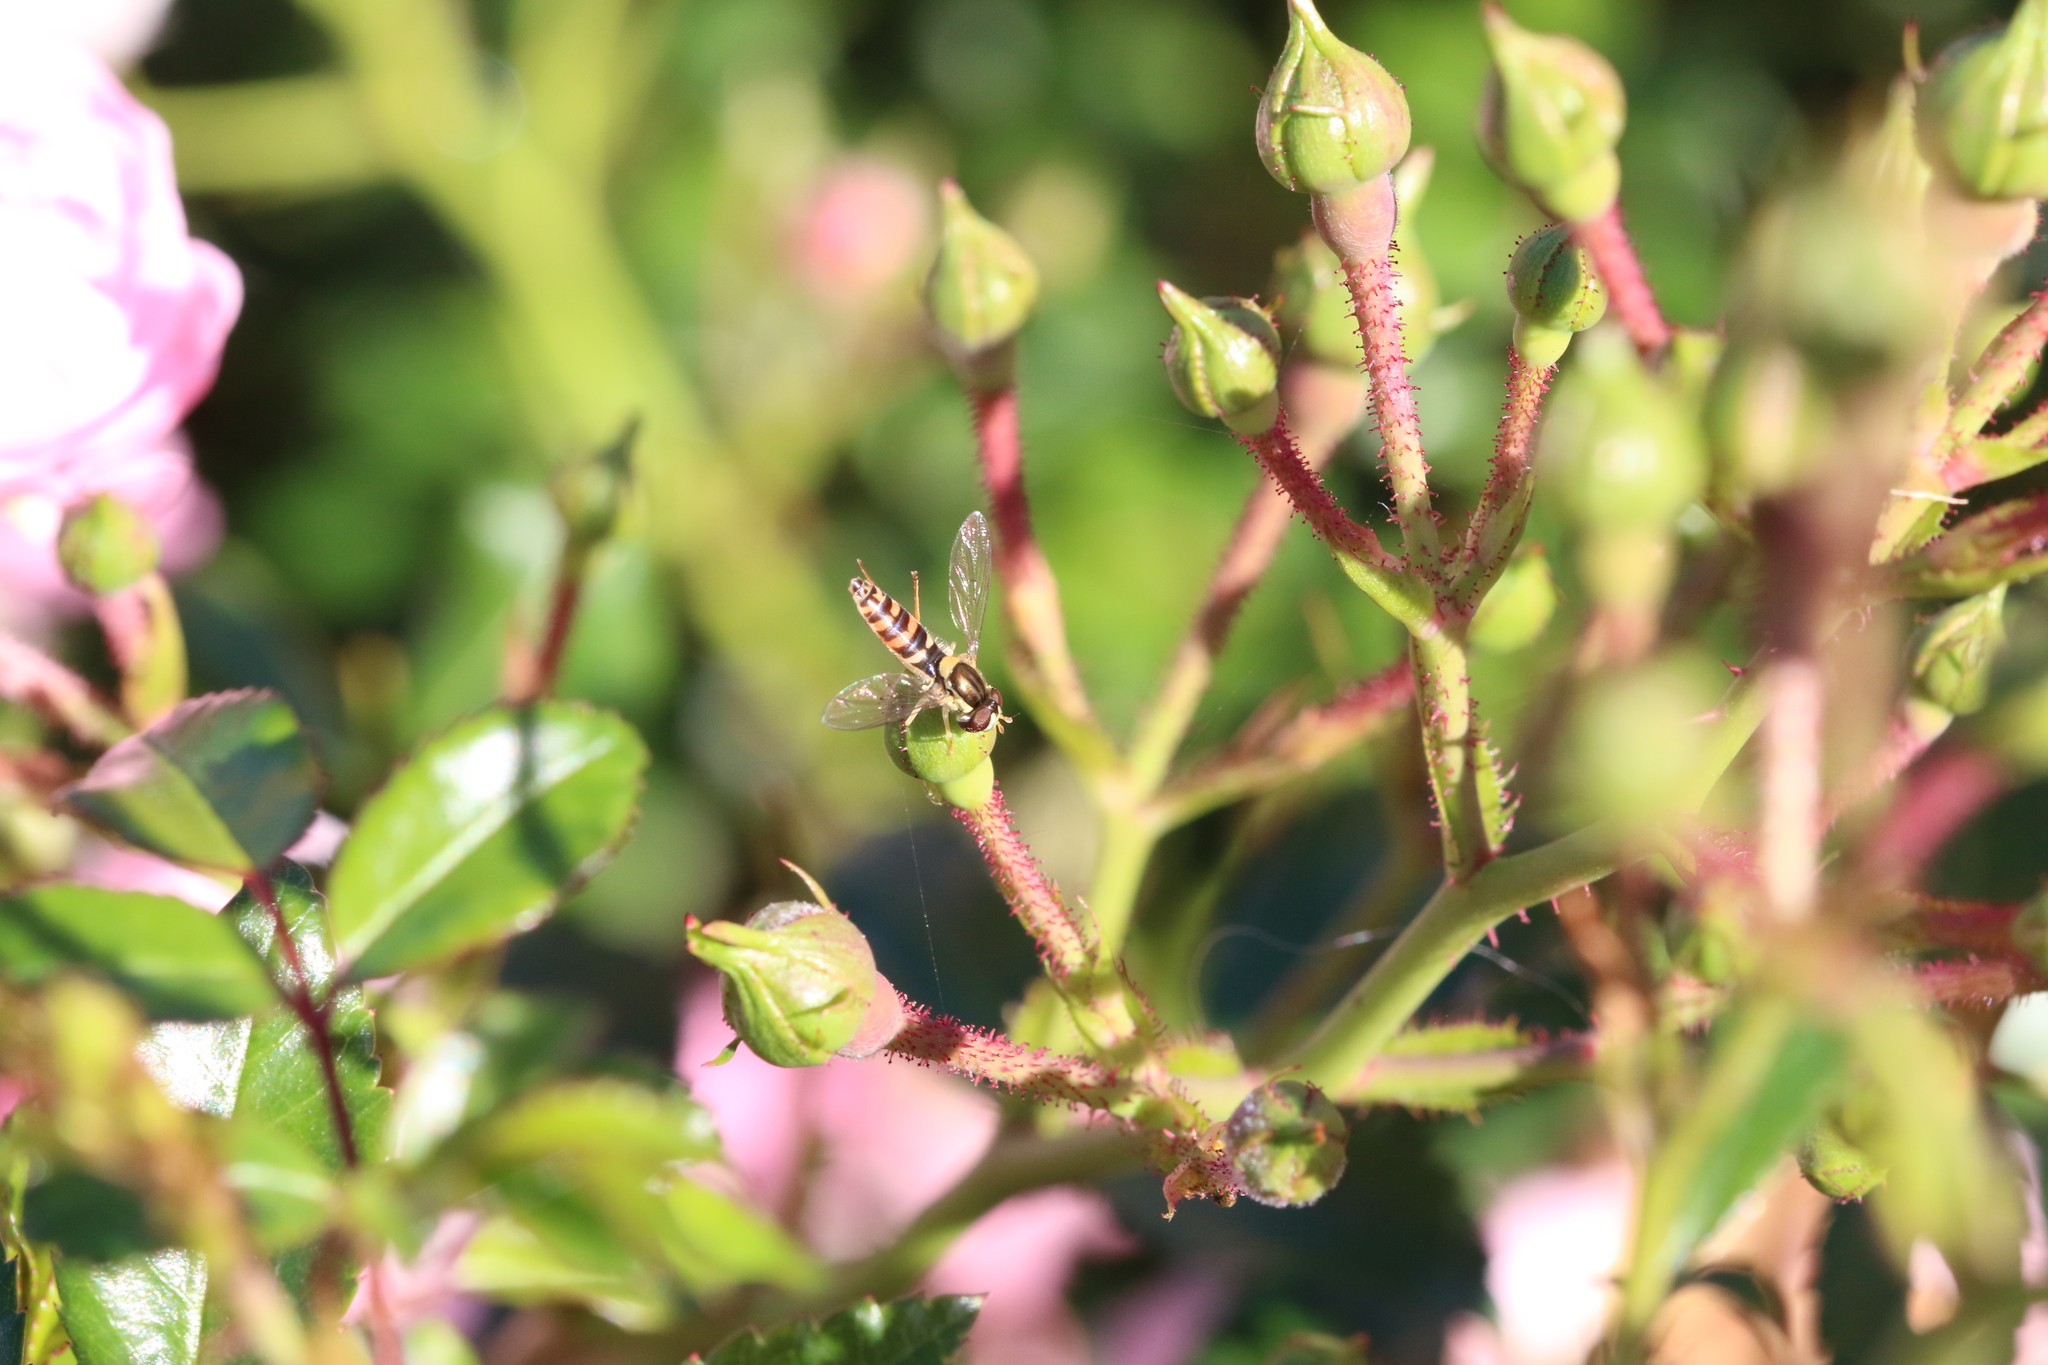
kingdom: Animalia
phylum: Arthropoda
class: Insecta
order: Diptera
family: Syrphidae
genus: Sphaerophoria
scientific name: Sphaerophoria
